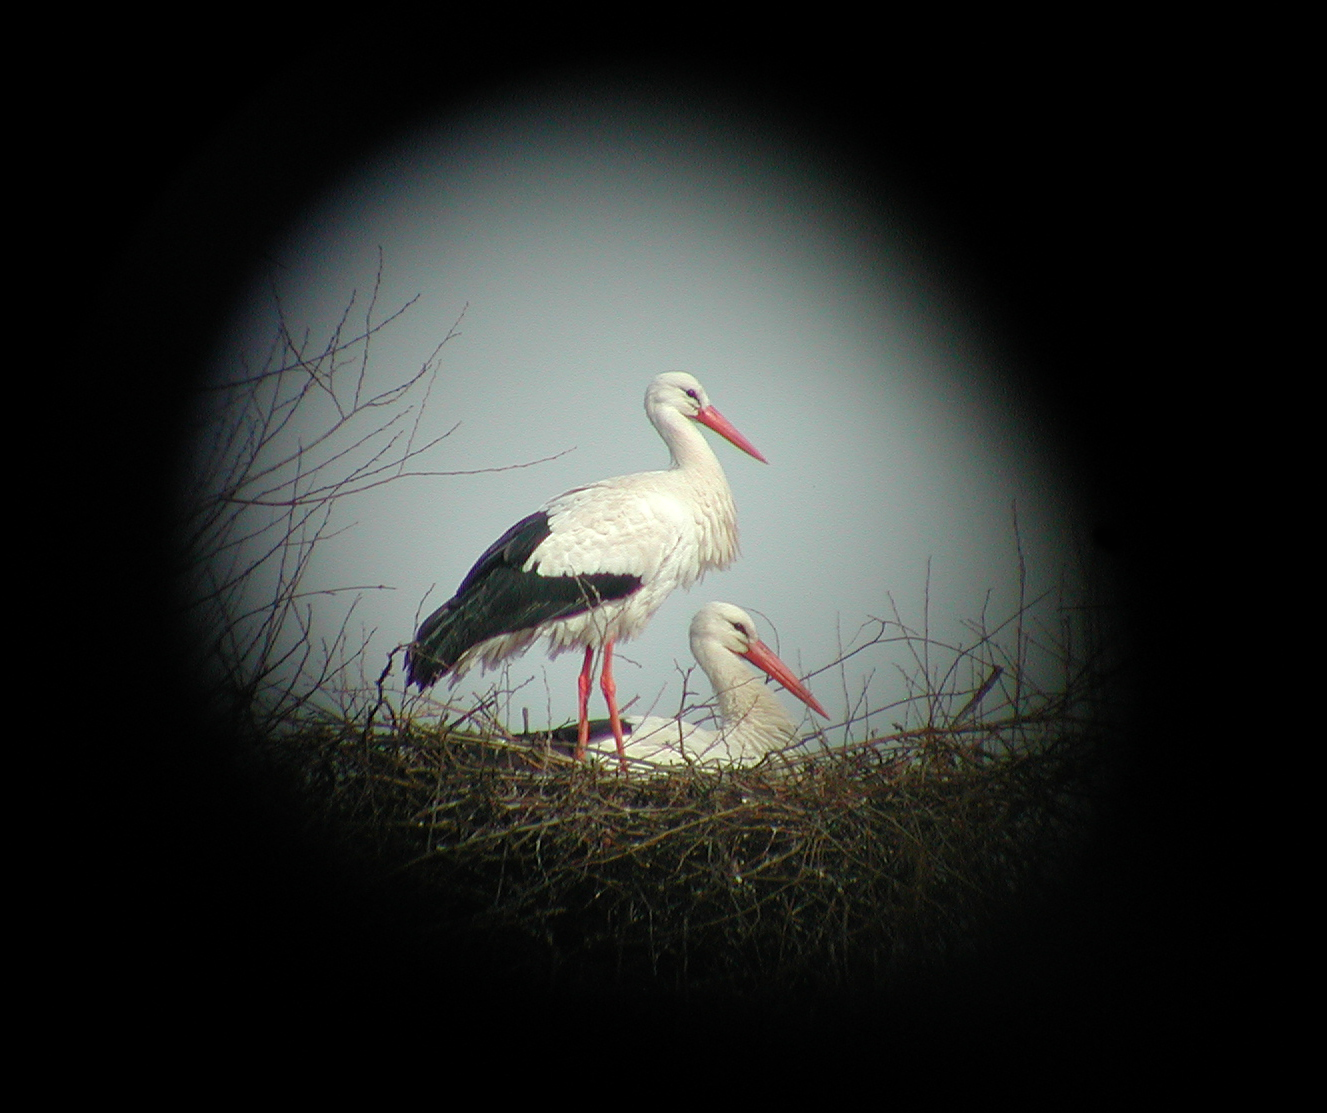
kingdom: Animalia
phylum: Chordata
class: Aves
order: Ciconiiformes
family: Ciconiidae
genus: Ciconia
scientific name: Ciconia ciconia
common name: White stork
